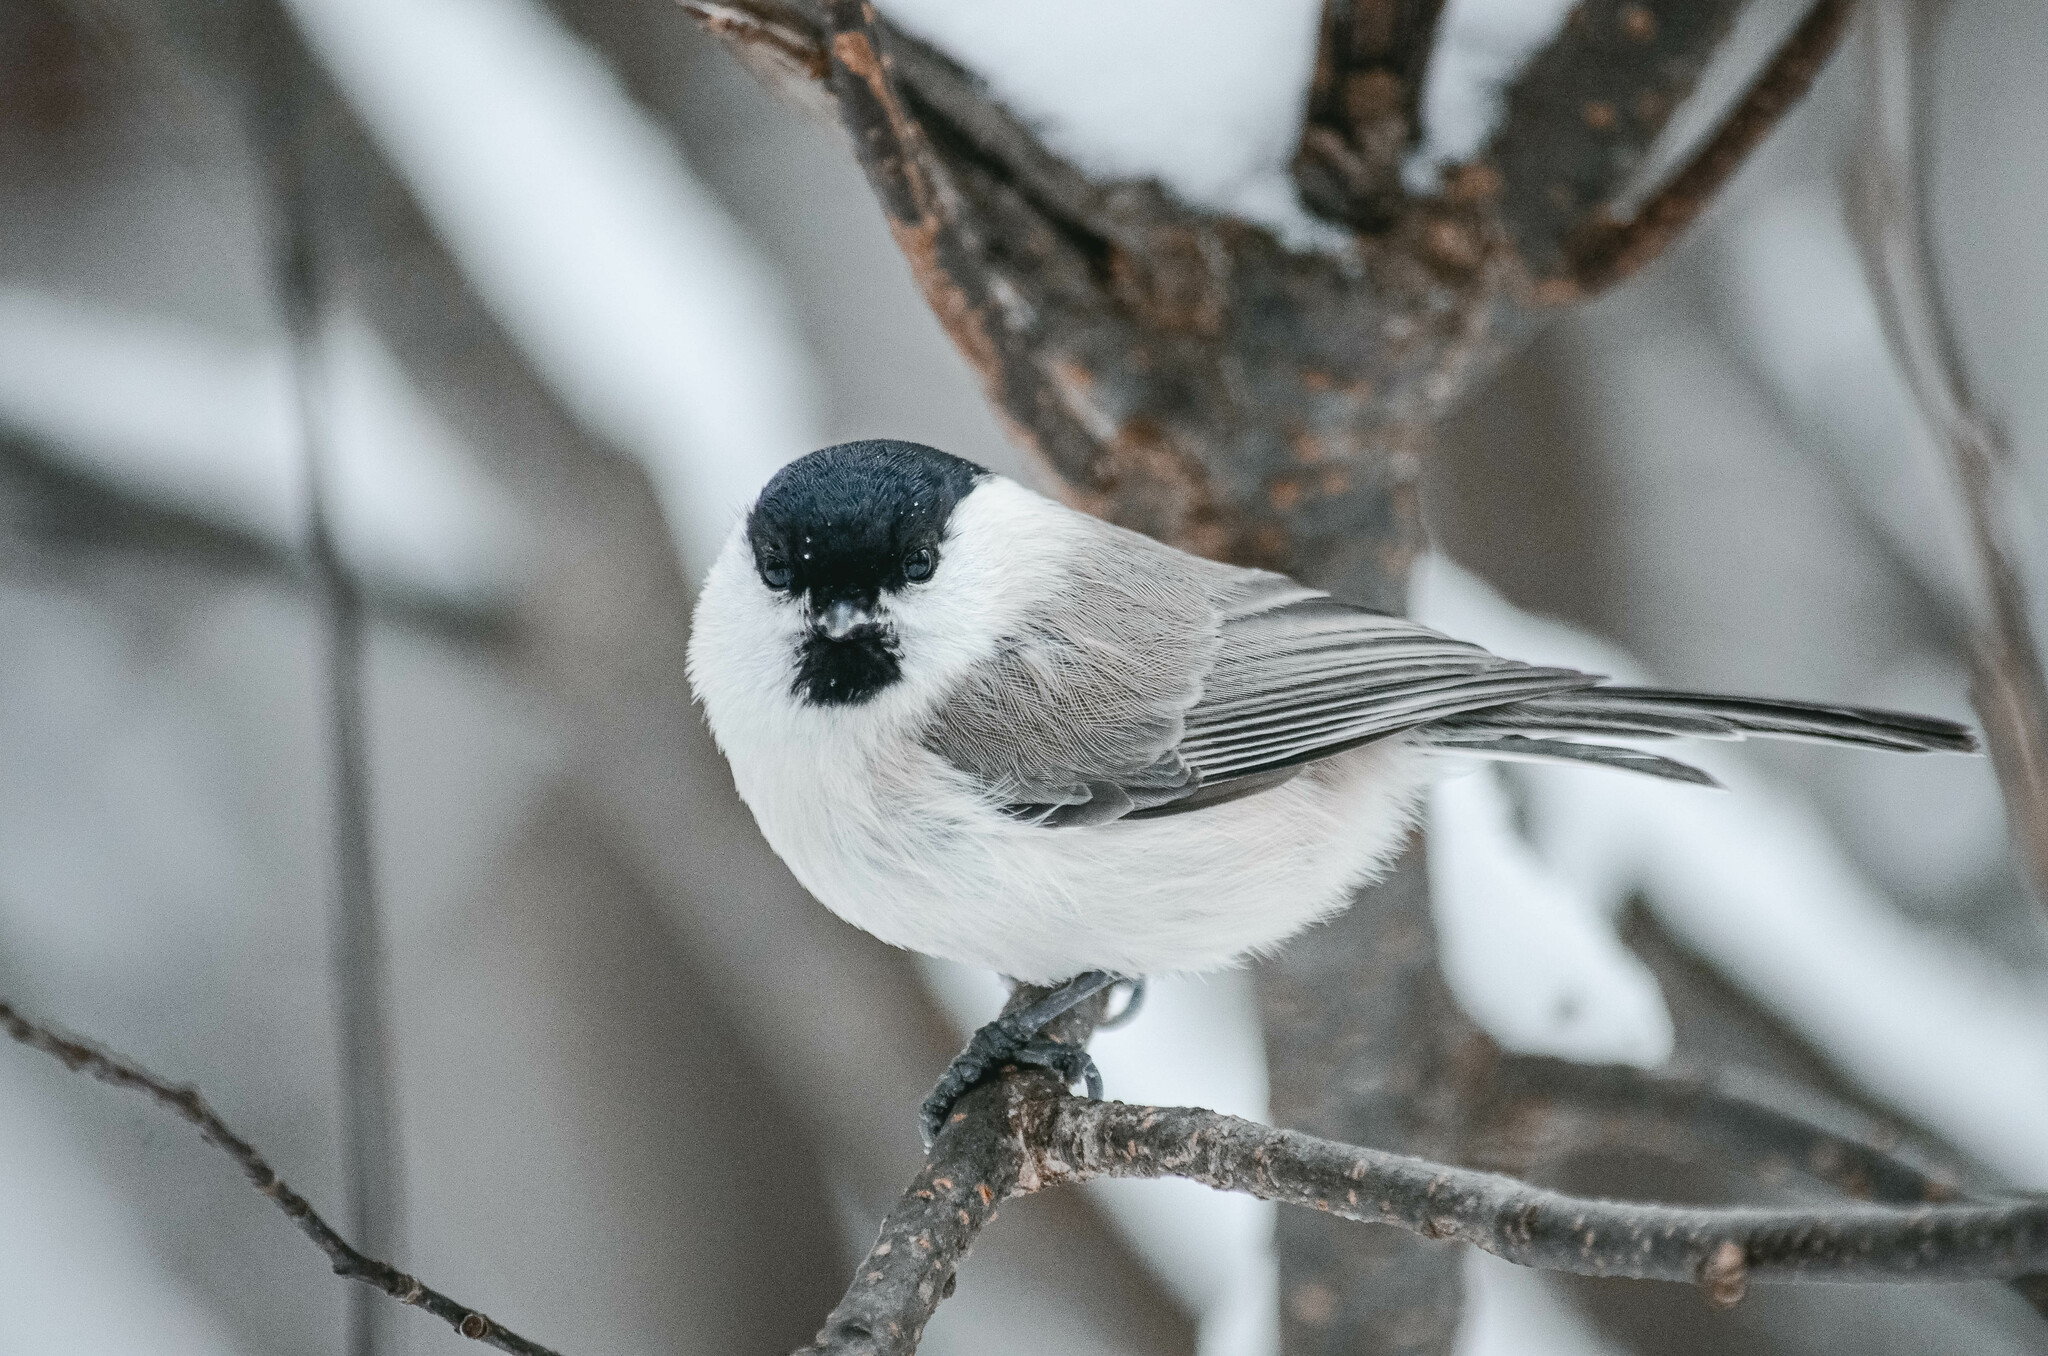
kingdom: Animalia
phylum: Chordata
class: Aves
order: Passeriformes
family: Paridae
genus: Poecile
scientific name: Poecile palustris
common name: Marsh tit
